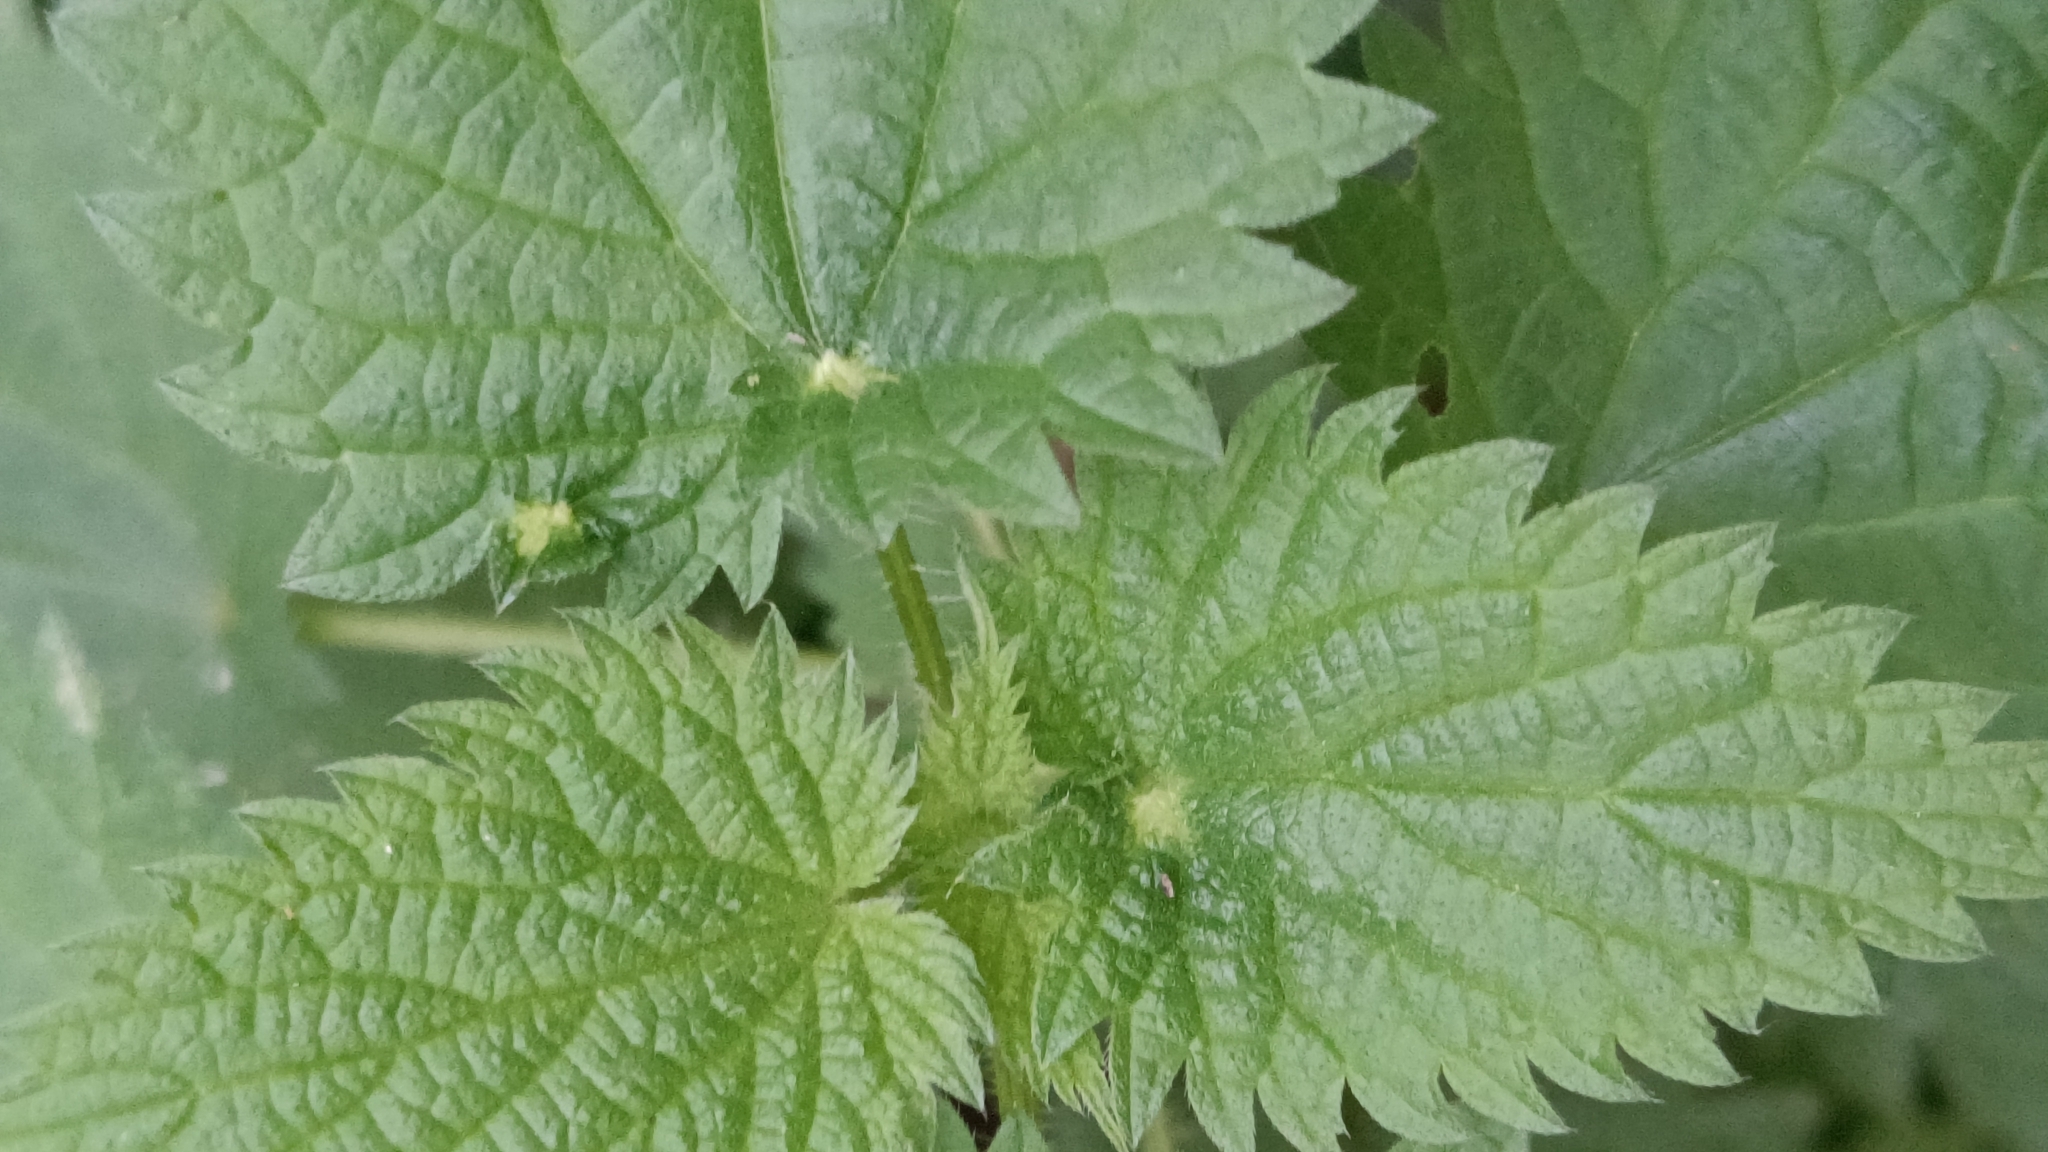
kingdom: Animalia
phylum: Arthropoda
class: Insecta
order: Diptera
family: Cecidomyiidae
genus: Dasineura
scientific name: Dasineura urticae
